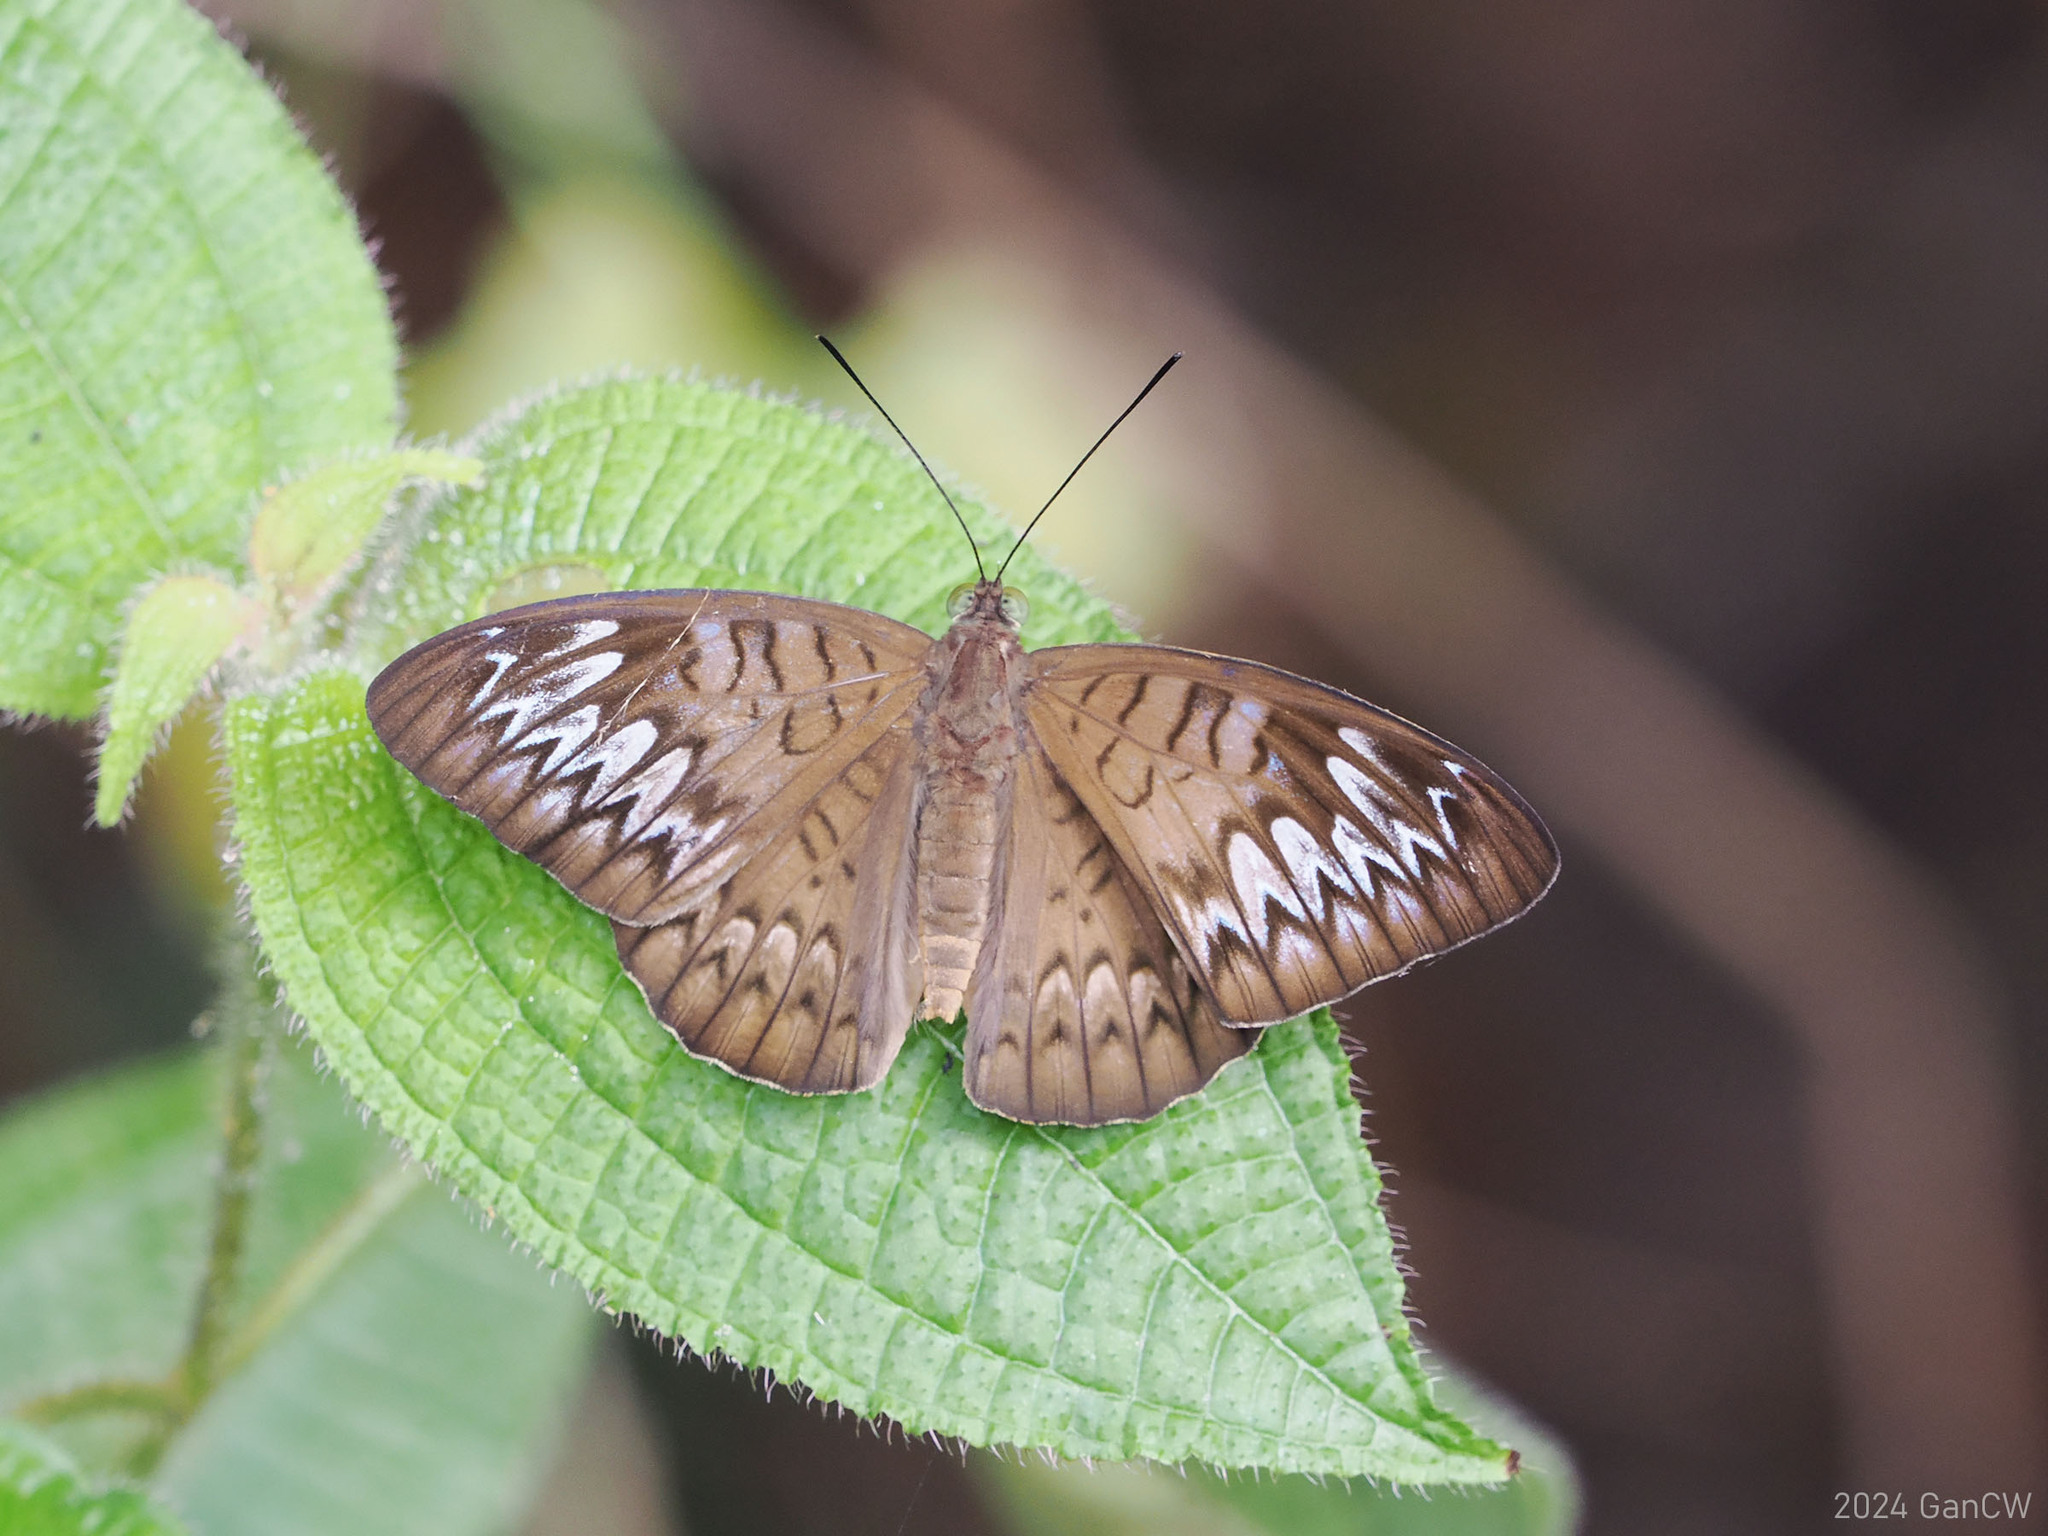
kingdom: Animalia
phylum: Arthropoda
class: Insecta
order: Lepidoptera
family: Nymphalidae
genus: Tanaecia
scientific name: Tanaecia pelea
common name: Malay viscount
